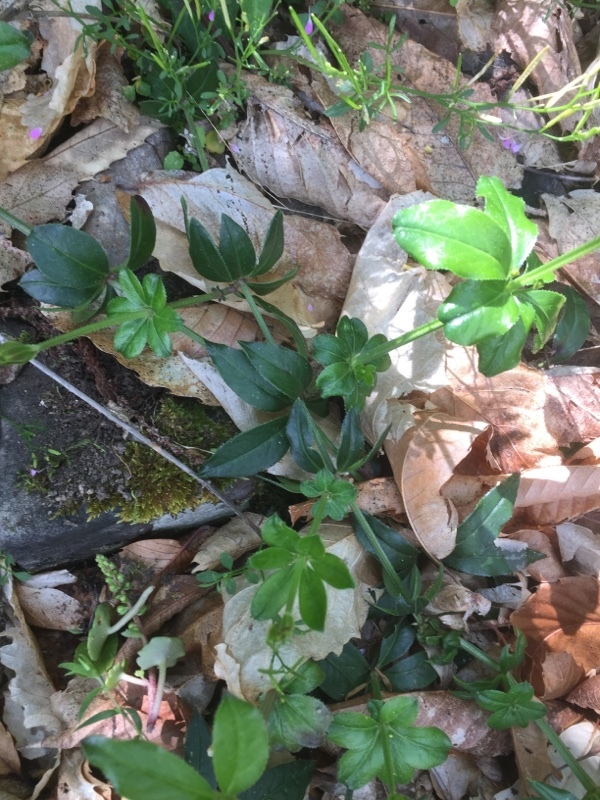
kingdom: Plantae
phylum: Tracheophyta
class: Magnoliopsida
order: Gentianales
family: Rubiaceae
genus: Rubia
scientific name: Rubia peregrina
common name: Wild madder
